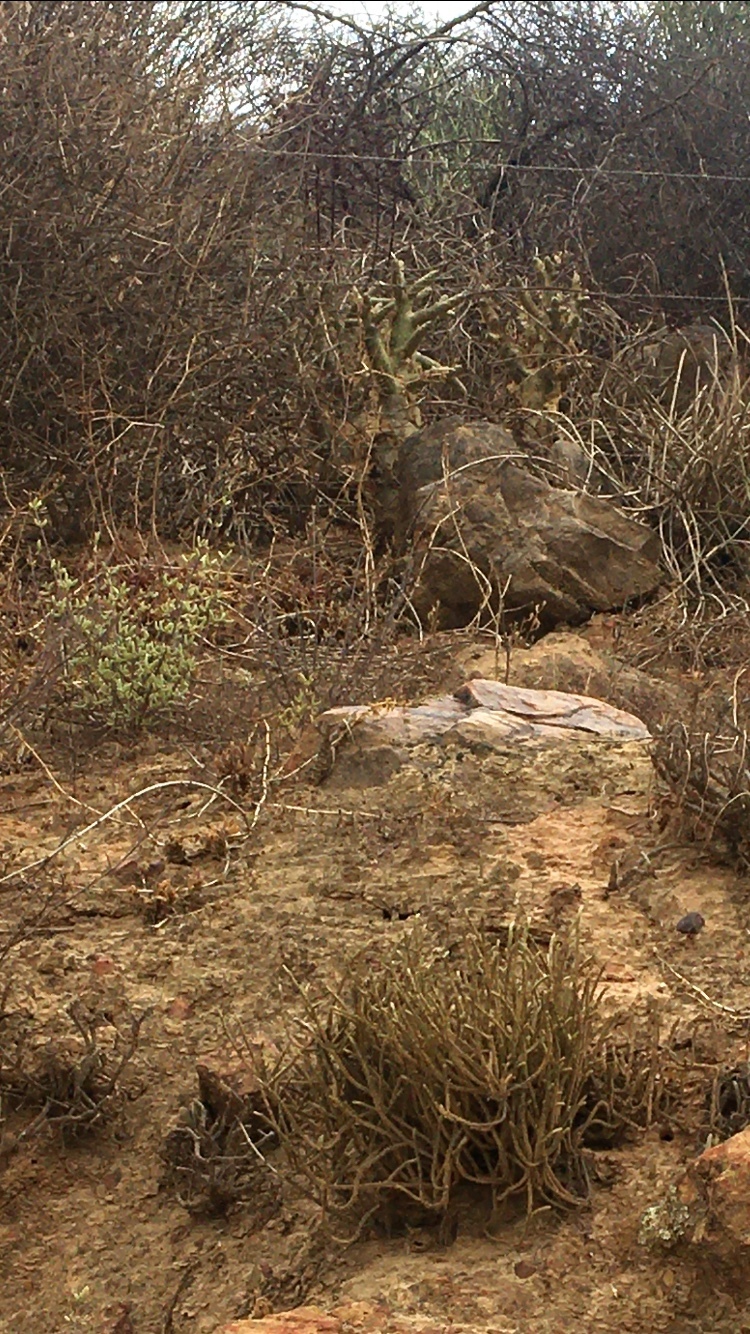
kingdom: Plantae
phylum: Tracheophyta
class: Magnoliopsida
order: Saxifragales
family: Crassulaceae
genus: Tylecodon
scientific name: Tylecodon paniculatus
